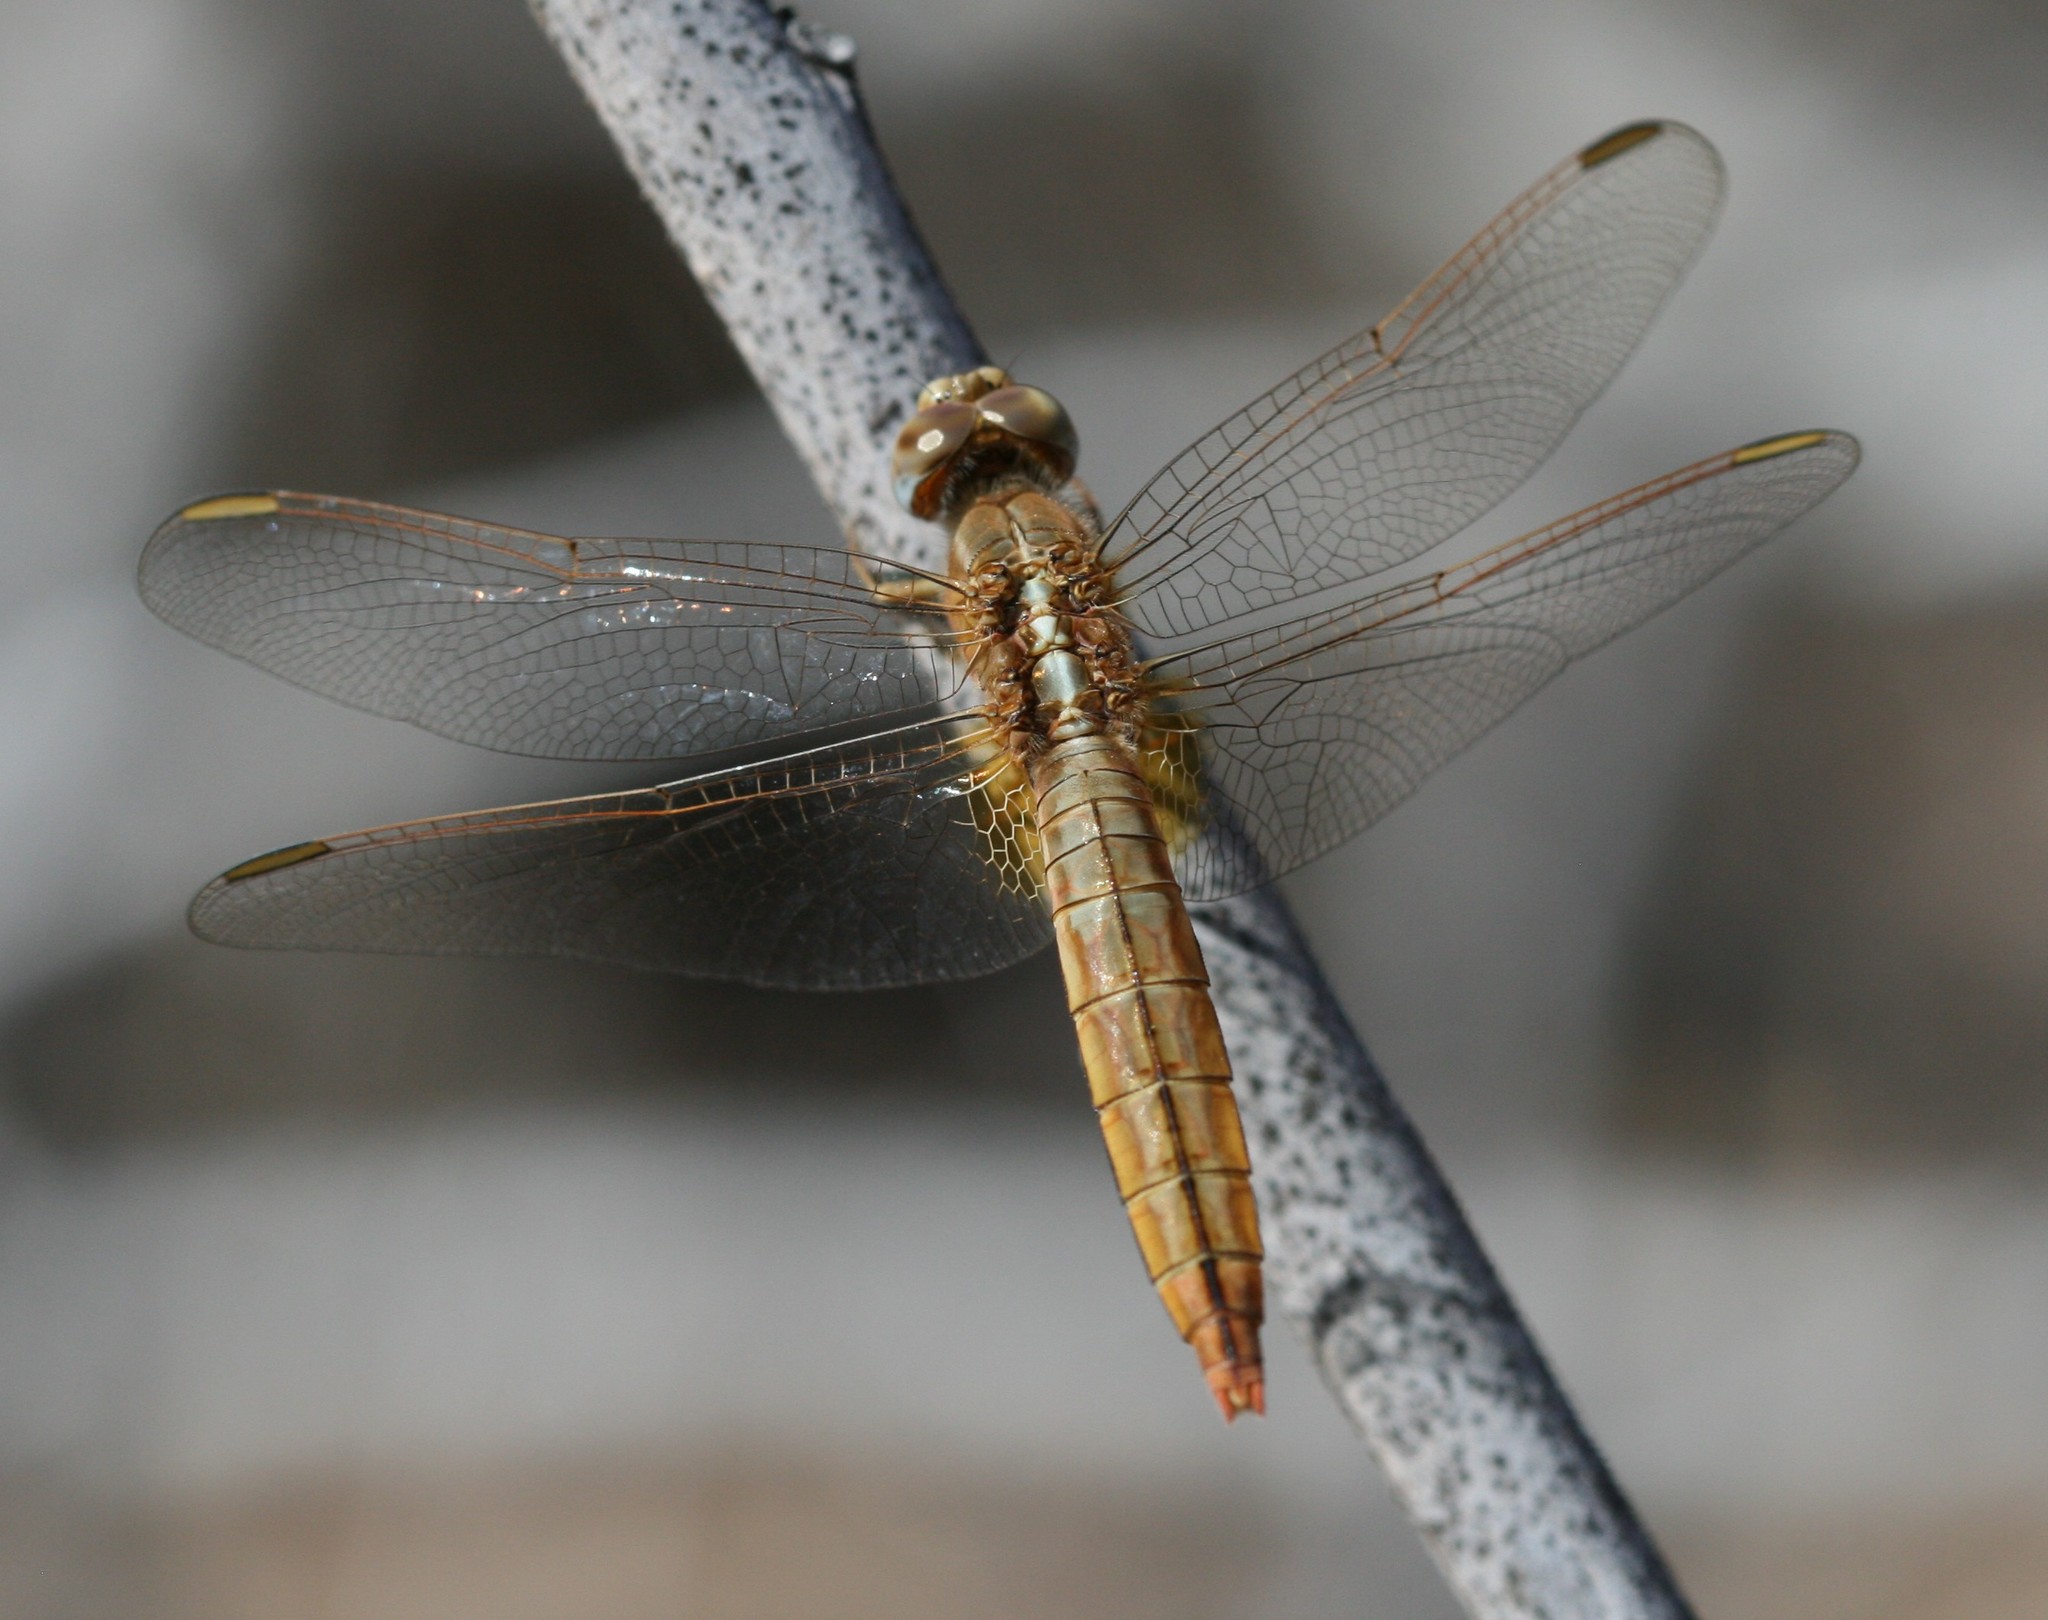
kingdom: Animalia
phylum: Arthropoda
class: Insecta
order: Odonata
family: Libellulidae
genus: Crocothemis
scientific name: Crocothemis erythraea
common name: Scarlet dragonfly
